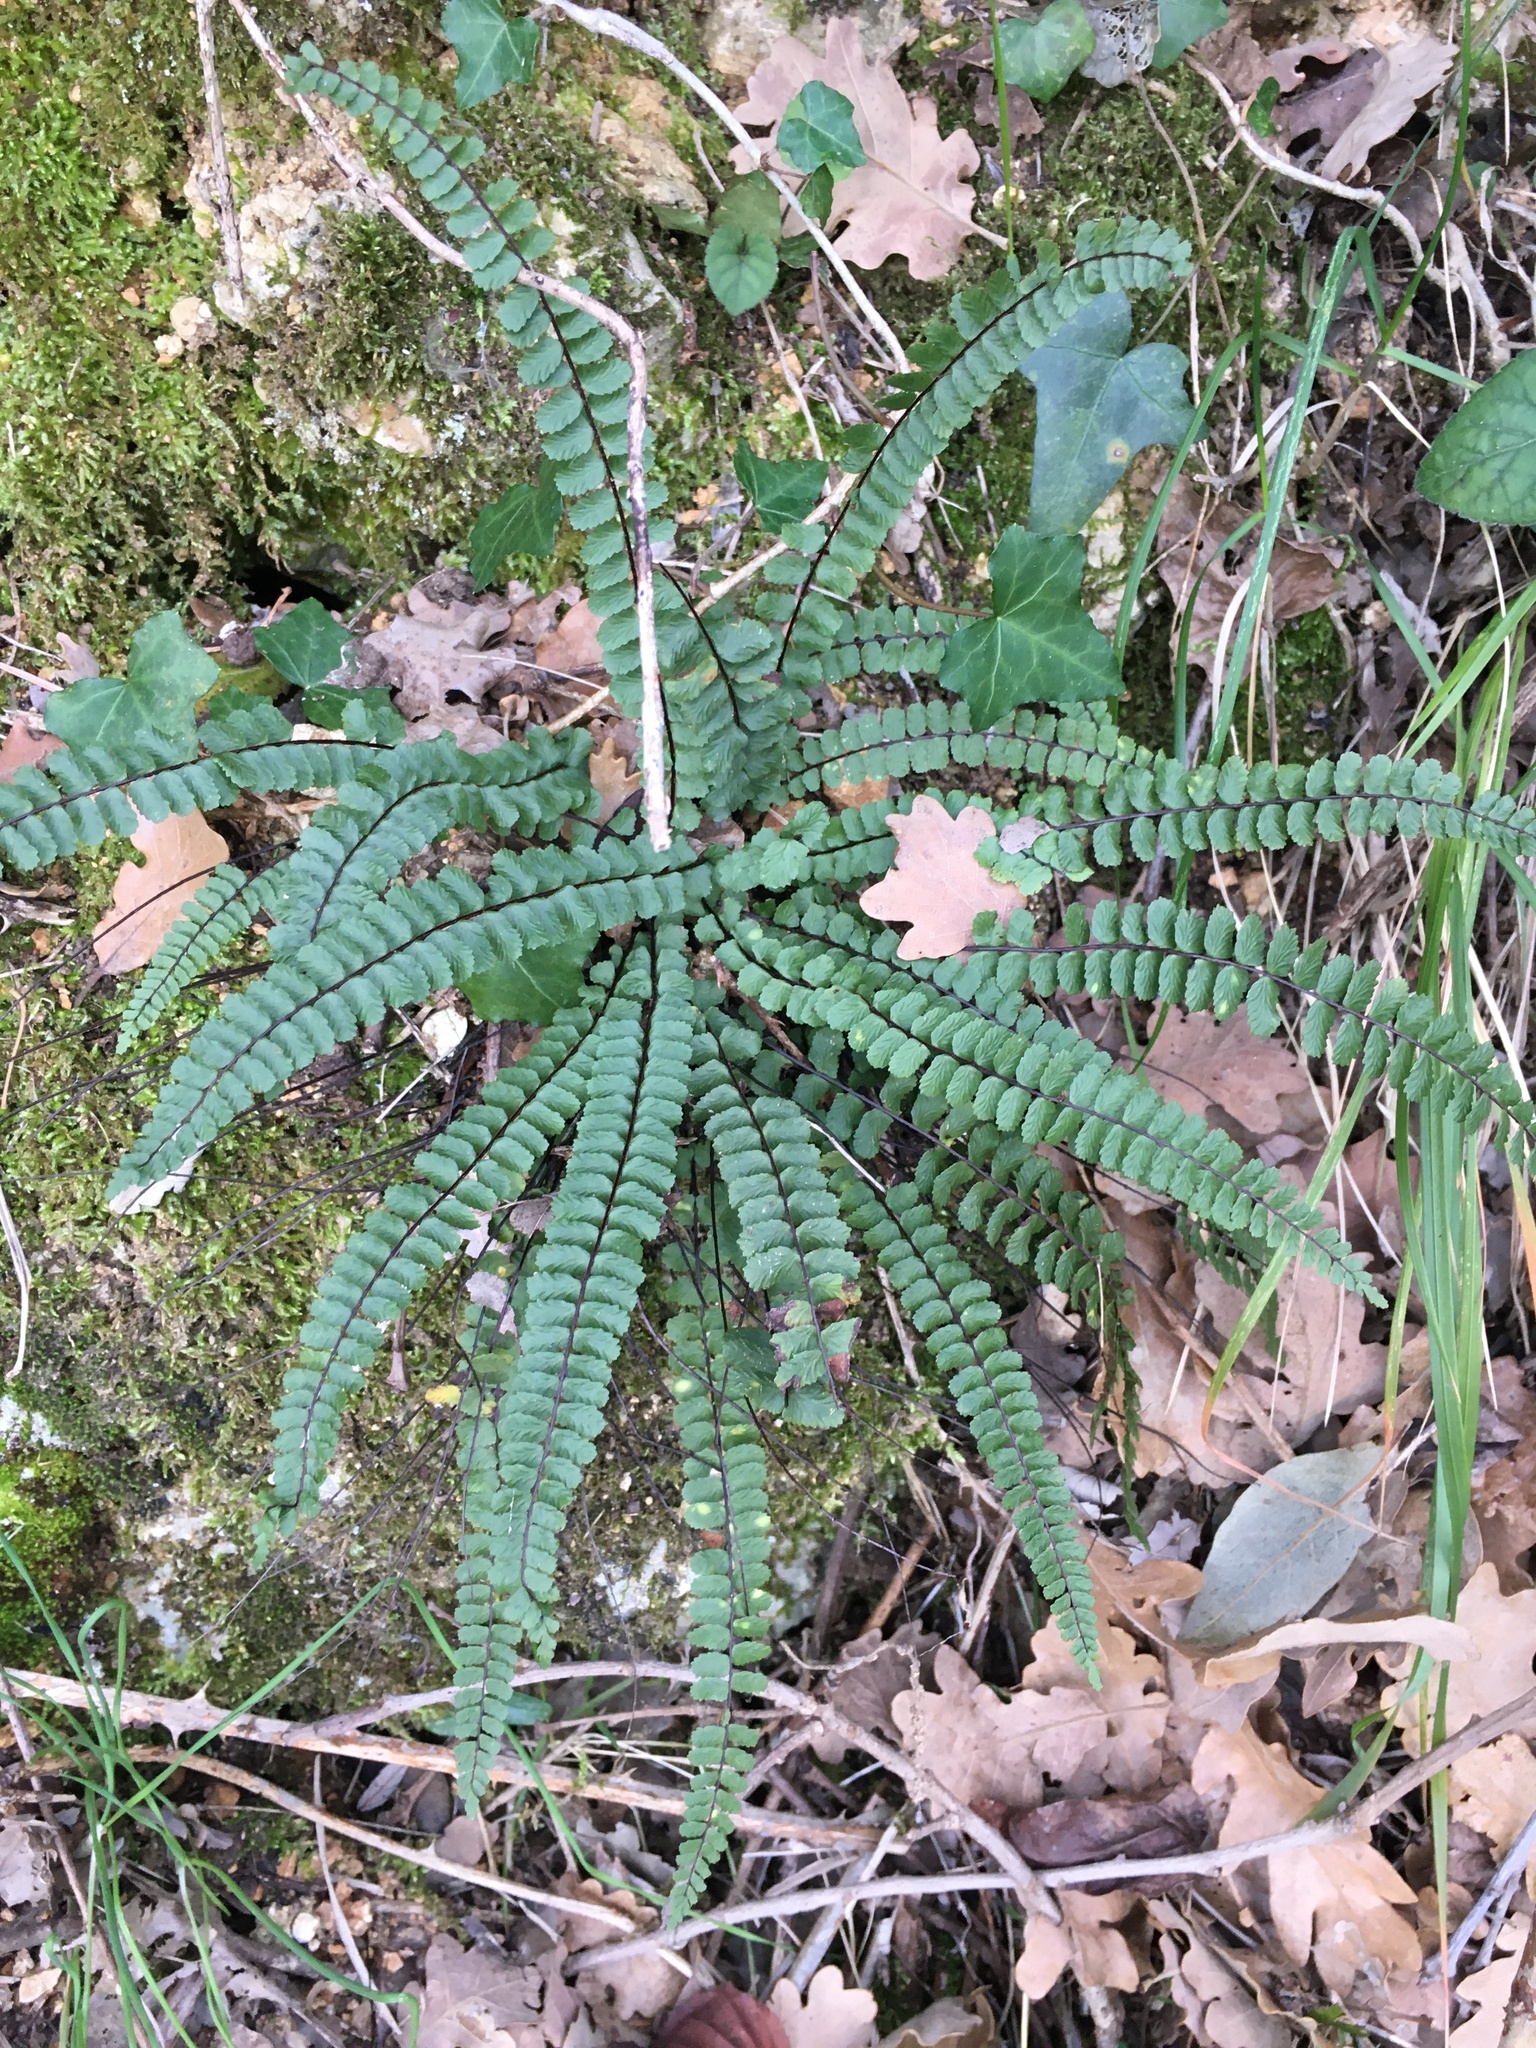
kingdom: Plantae
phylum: Tracheophyta
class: Polypodiopsida
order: Polypodiales
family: Aspleniaceae
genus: Asplenium
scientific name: Asplenium trichomanes
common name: Maidenhair spleenwort
